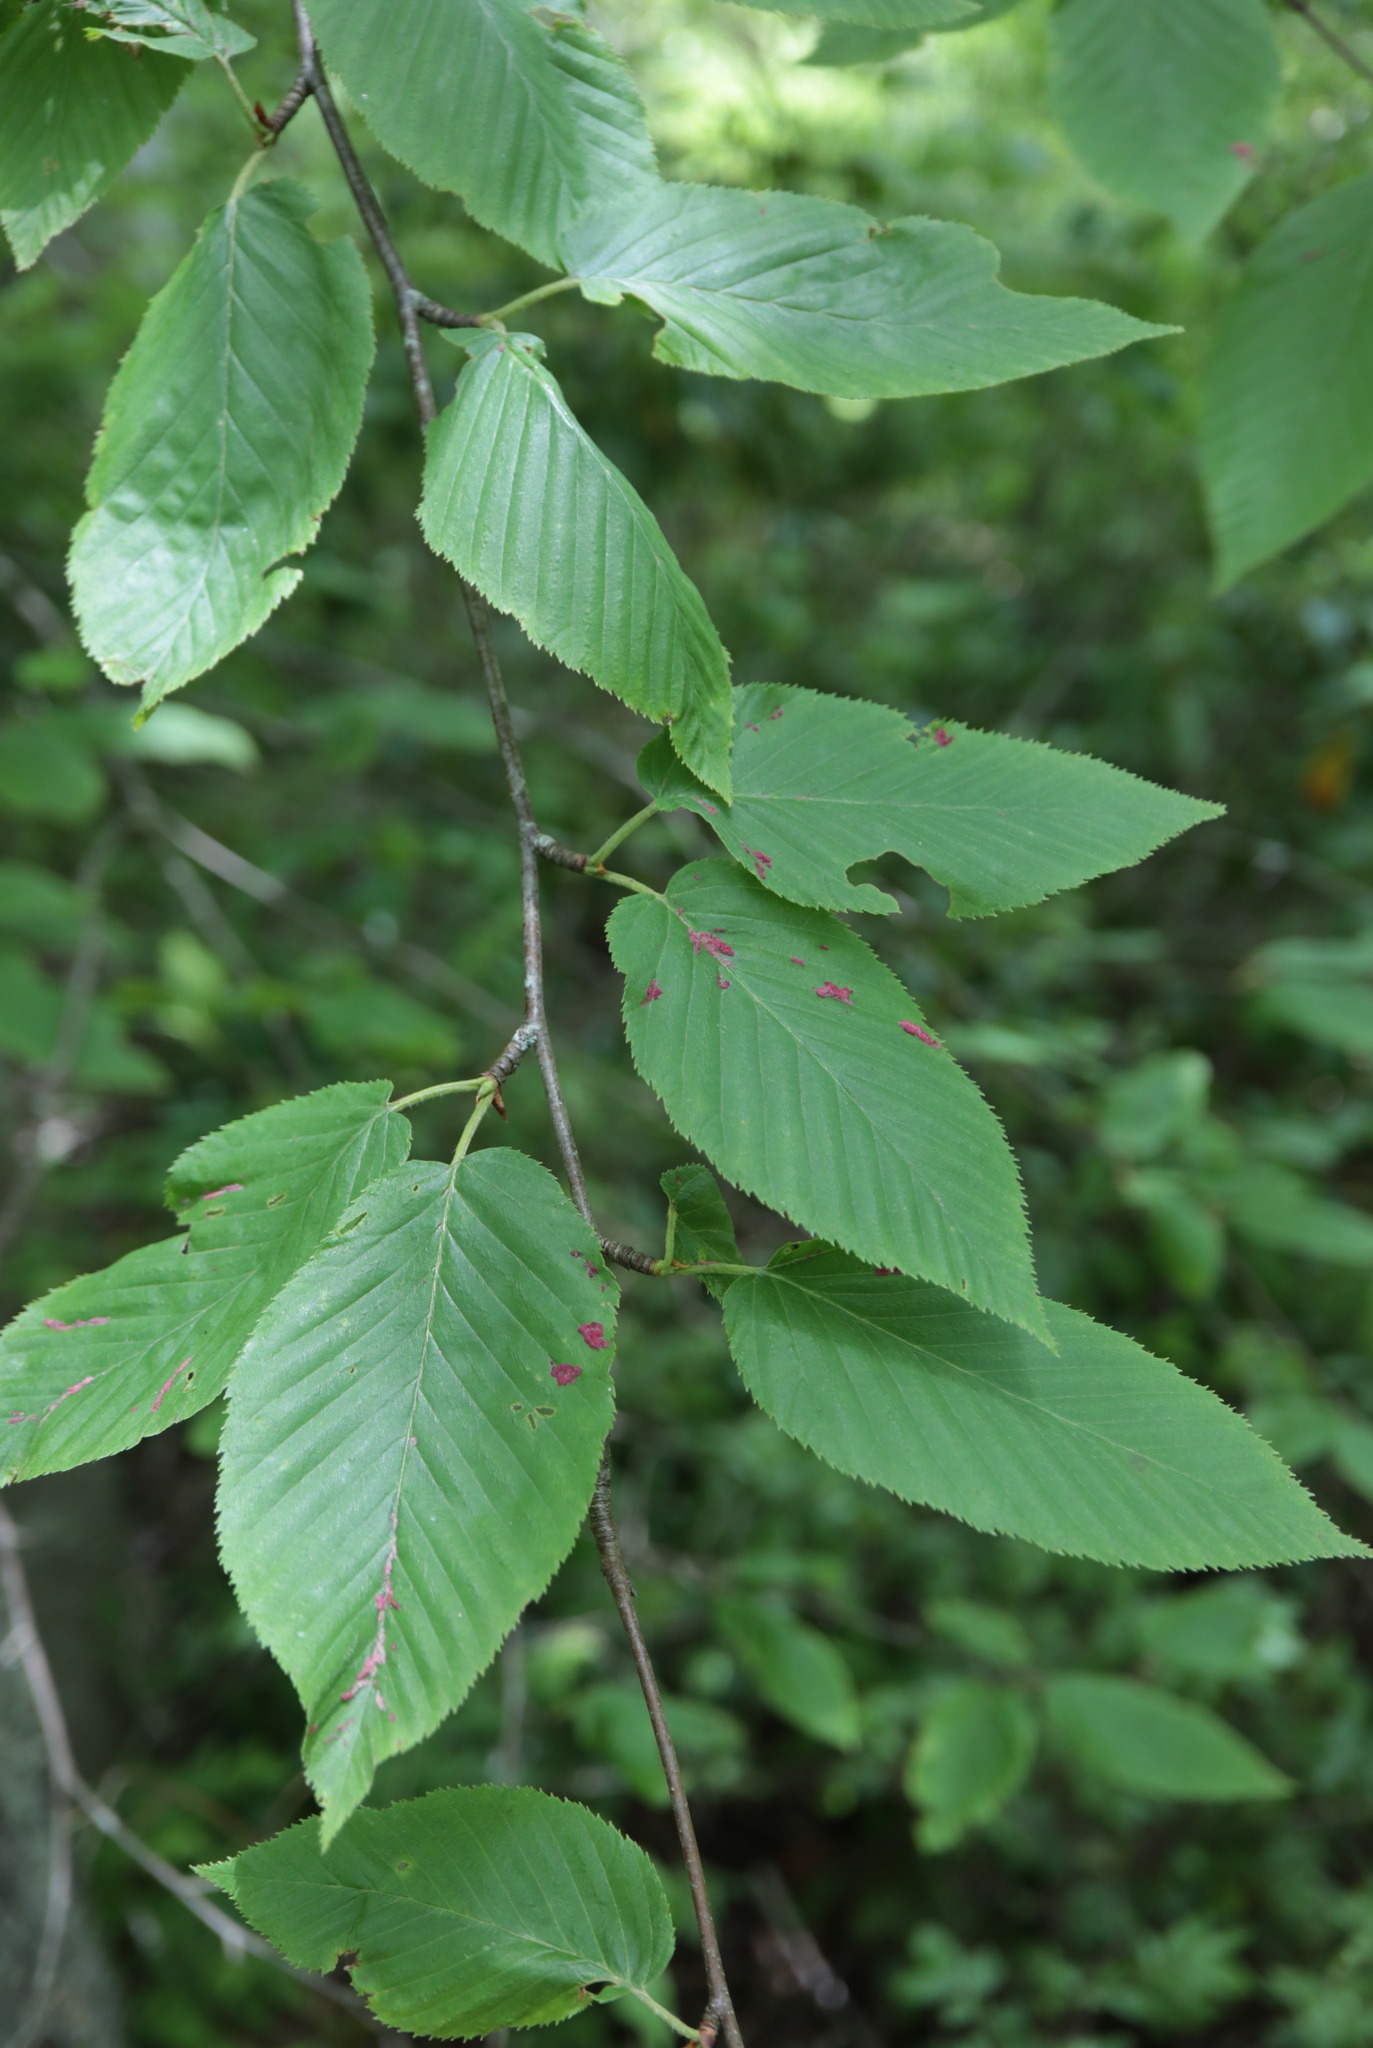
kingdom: Animalia
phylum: Arthropoda
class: Arachnida
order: Trombidiformes
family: Eriophyidae
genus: Acalitus
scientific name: Acalitus longisetosus
